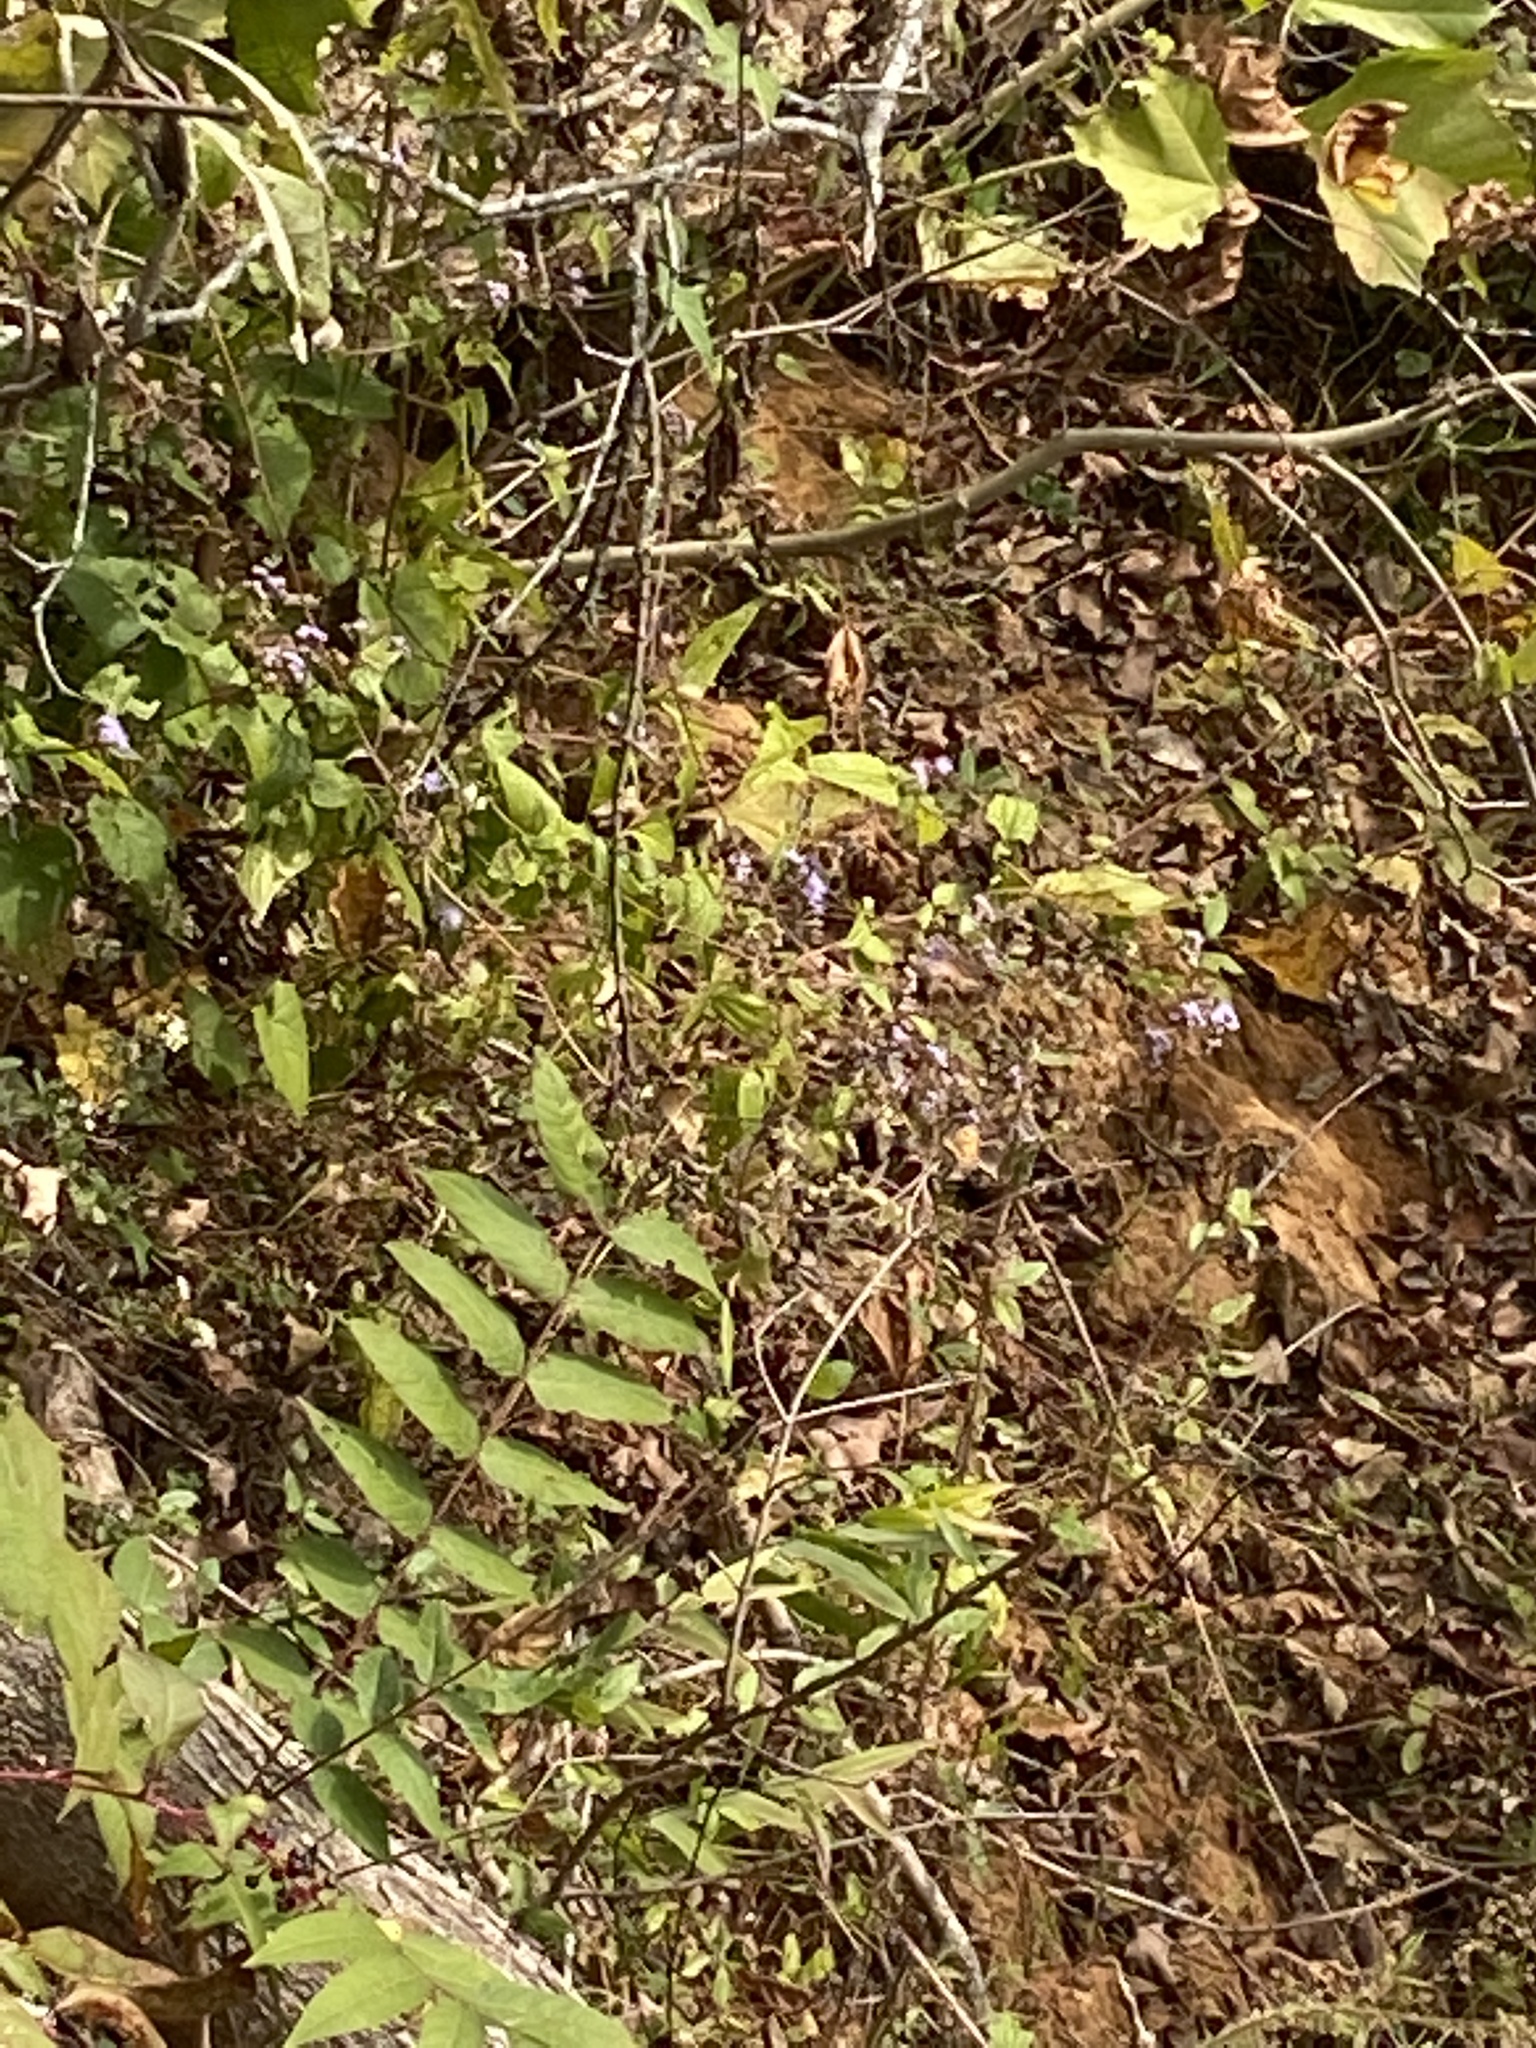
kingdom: Plantae
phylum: Tracheophyta
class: Magnoliopsida
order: Asterales
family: Asteraceae
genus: Conoclinium
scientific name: Conoclinium coelestinum
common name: Blue mistflower
